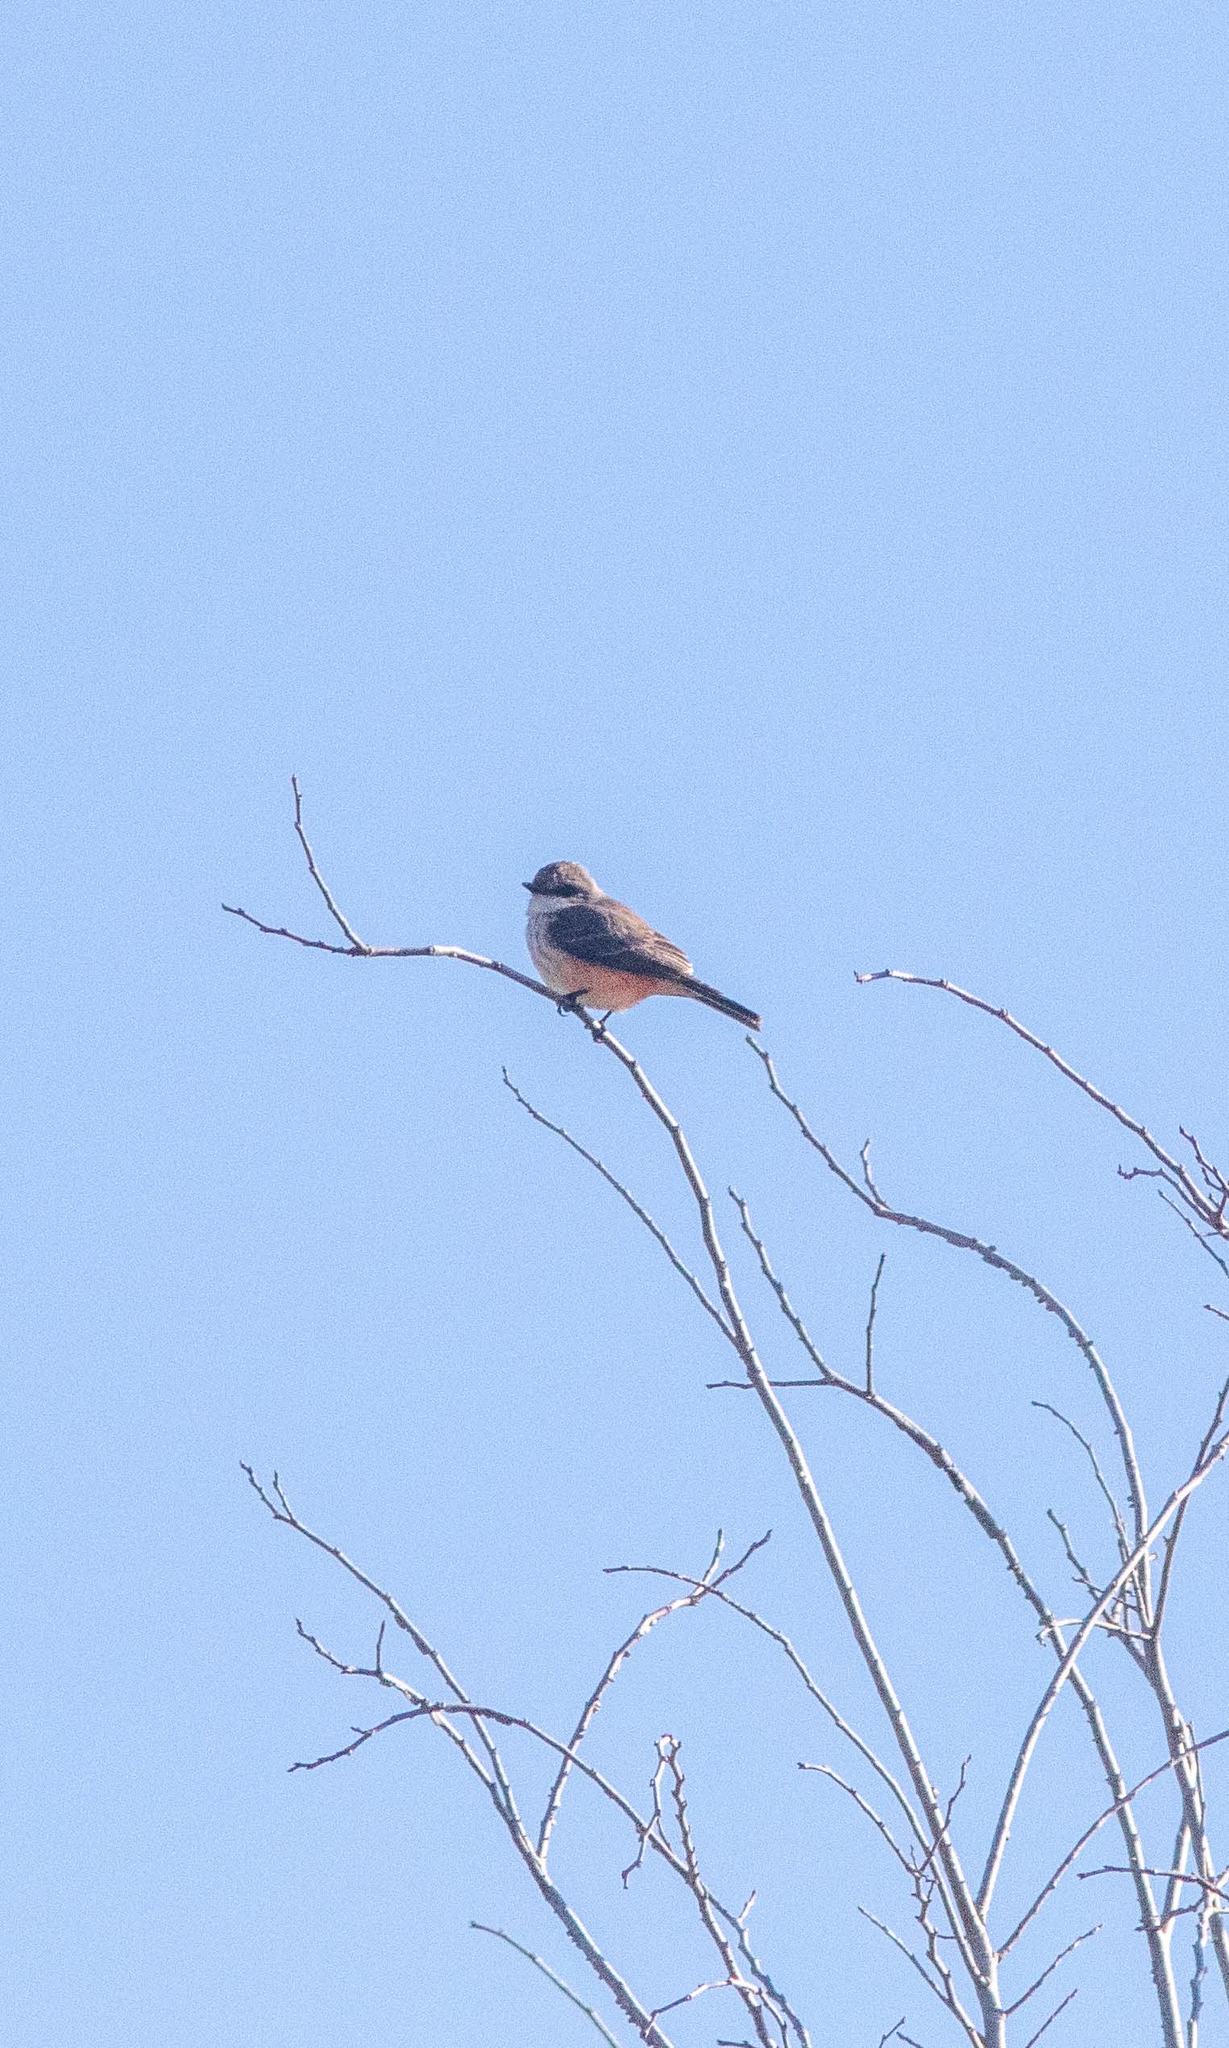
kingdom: Animalia
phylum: Chordata
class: Aves
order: Passeriformes
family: Tyrannidae
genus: Pyrocephalus
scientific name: Pyrocephalus rubinus
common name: Vermilion flycatcher
